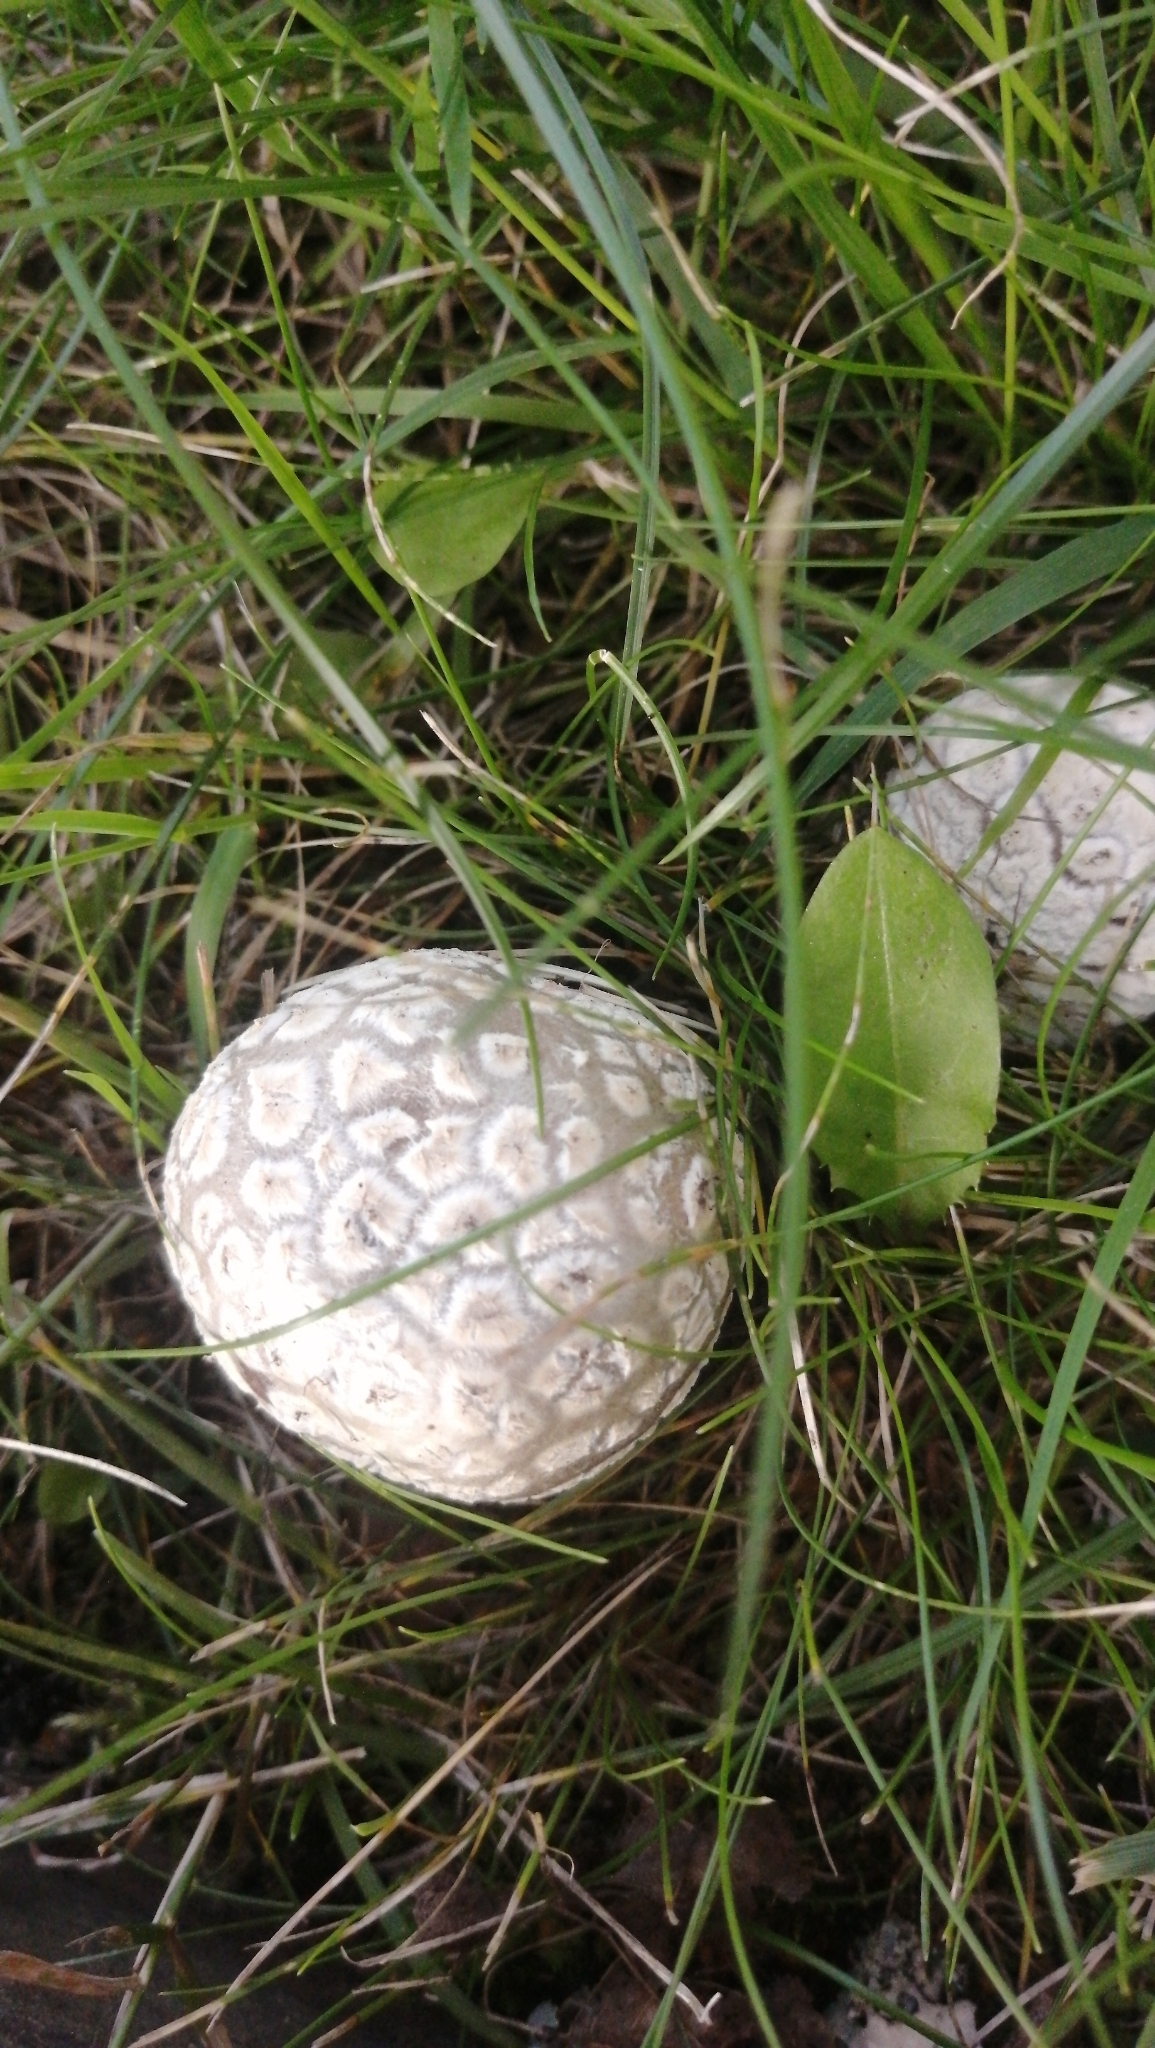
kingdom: Fungi
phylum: Basidiomycota
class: Agaricomycetes
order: Agaricales
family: Lycoperdaceae
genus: Bovistella
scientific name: Bovistella utriformis
